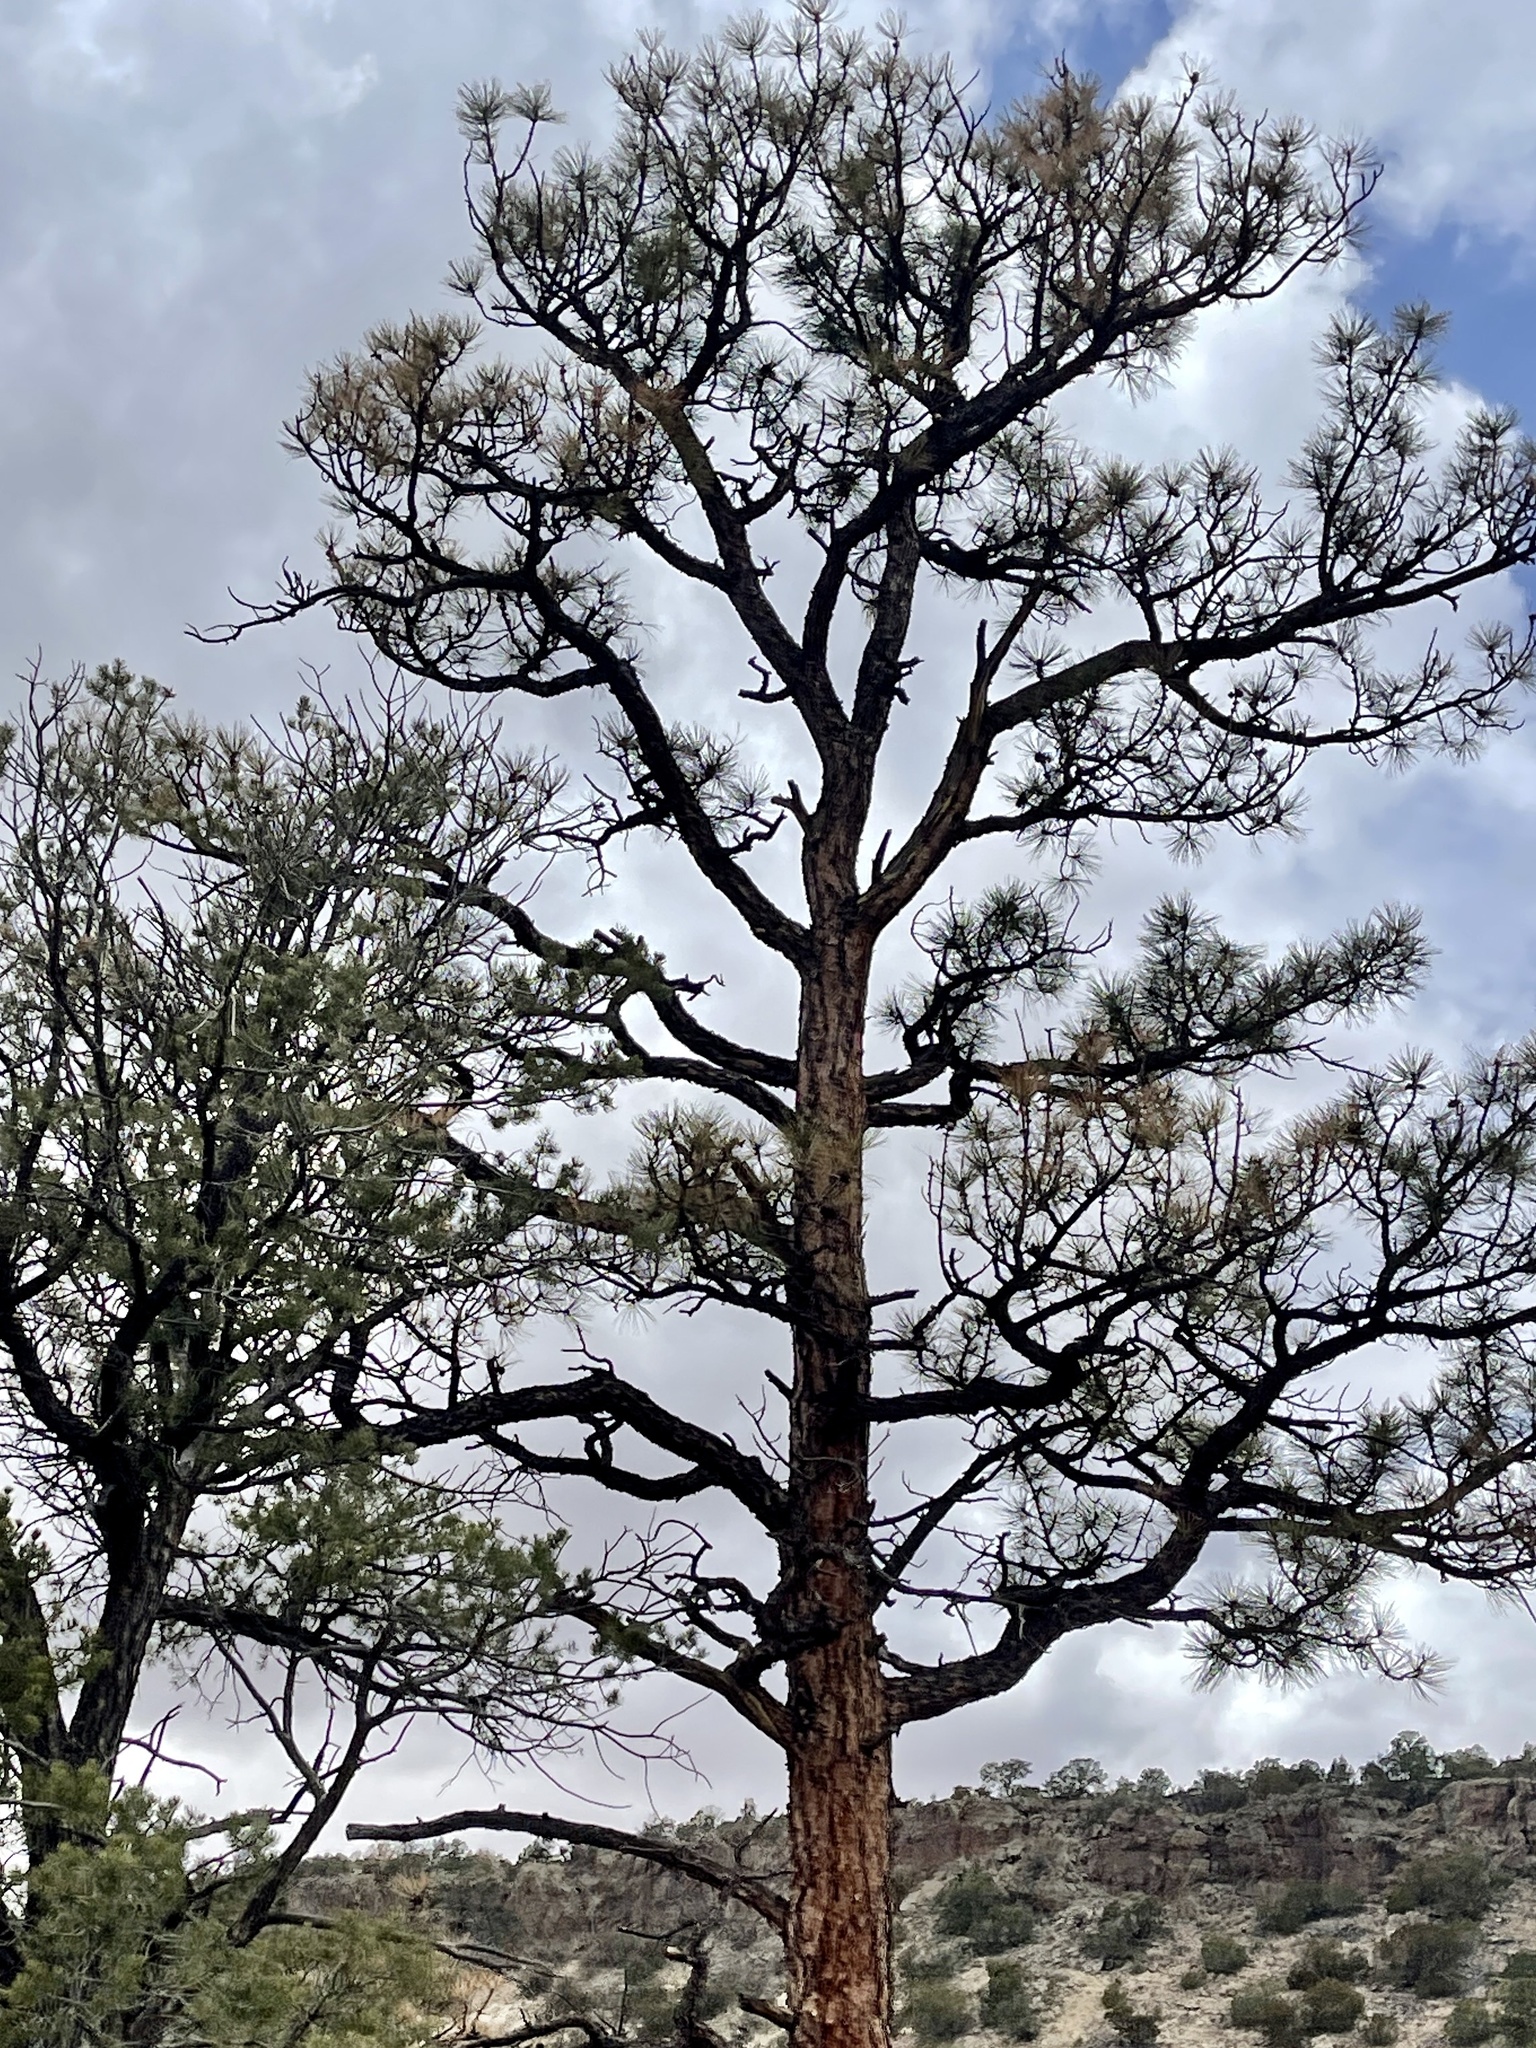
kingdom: Plantae
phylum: Tracheophyta
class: Pinopsida
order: Pinales
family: Pinaceae
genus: Pinus
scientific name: Pinus ponderosa
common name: Western yellow-pine
